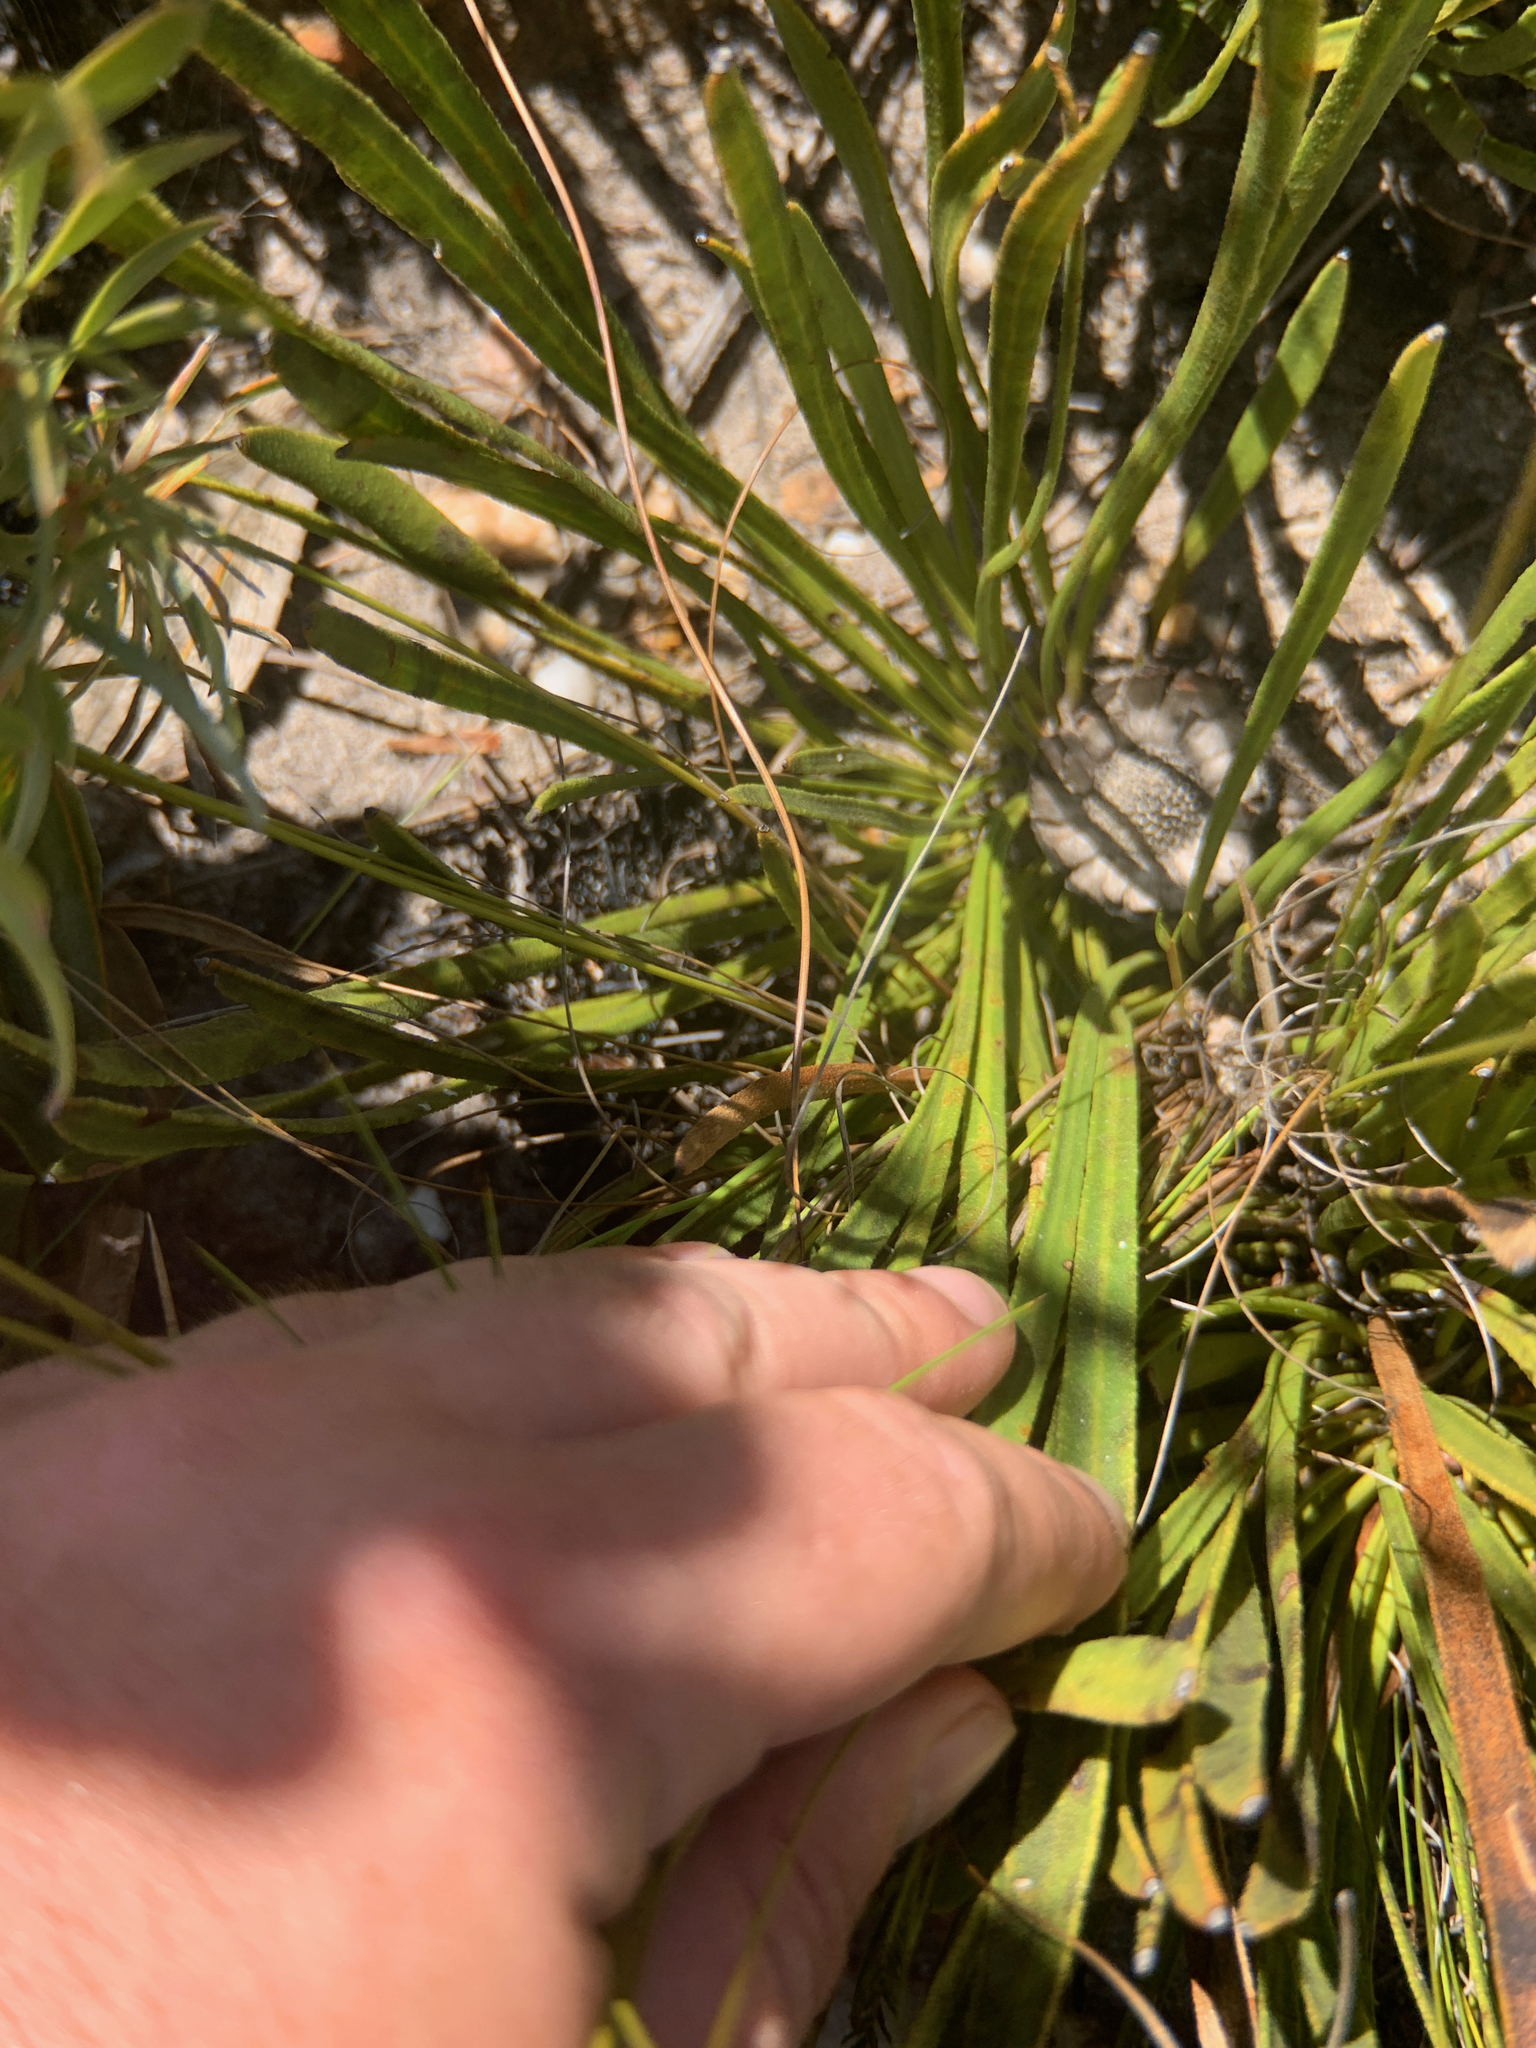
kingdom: Plantae
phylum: Tracheophyta
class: Magnoliopsida
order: Proteales
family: Proteaceae
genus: Protea
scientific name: Protea scabra
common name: Sandpaper-leaf sugarbush
